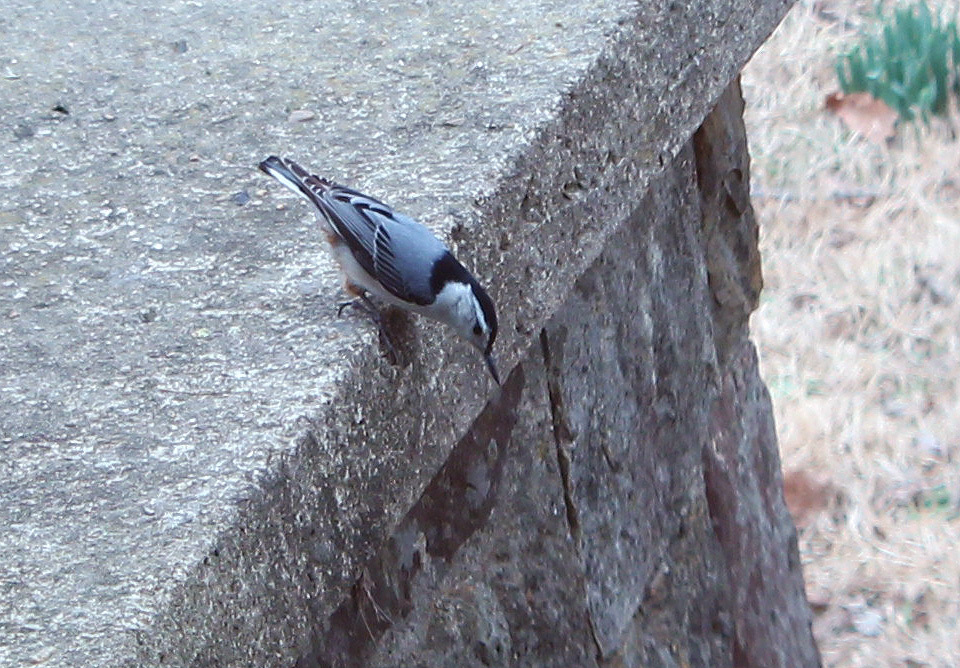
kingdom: Animalia
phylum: Chordata
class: Aves
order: Passeriformes
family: Sittidae
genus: Sitta
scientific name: Sitta carolinensis
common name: White-breasted nuthatch
